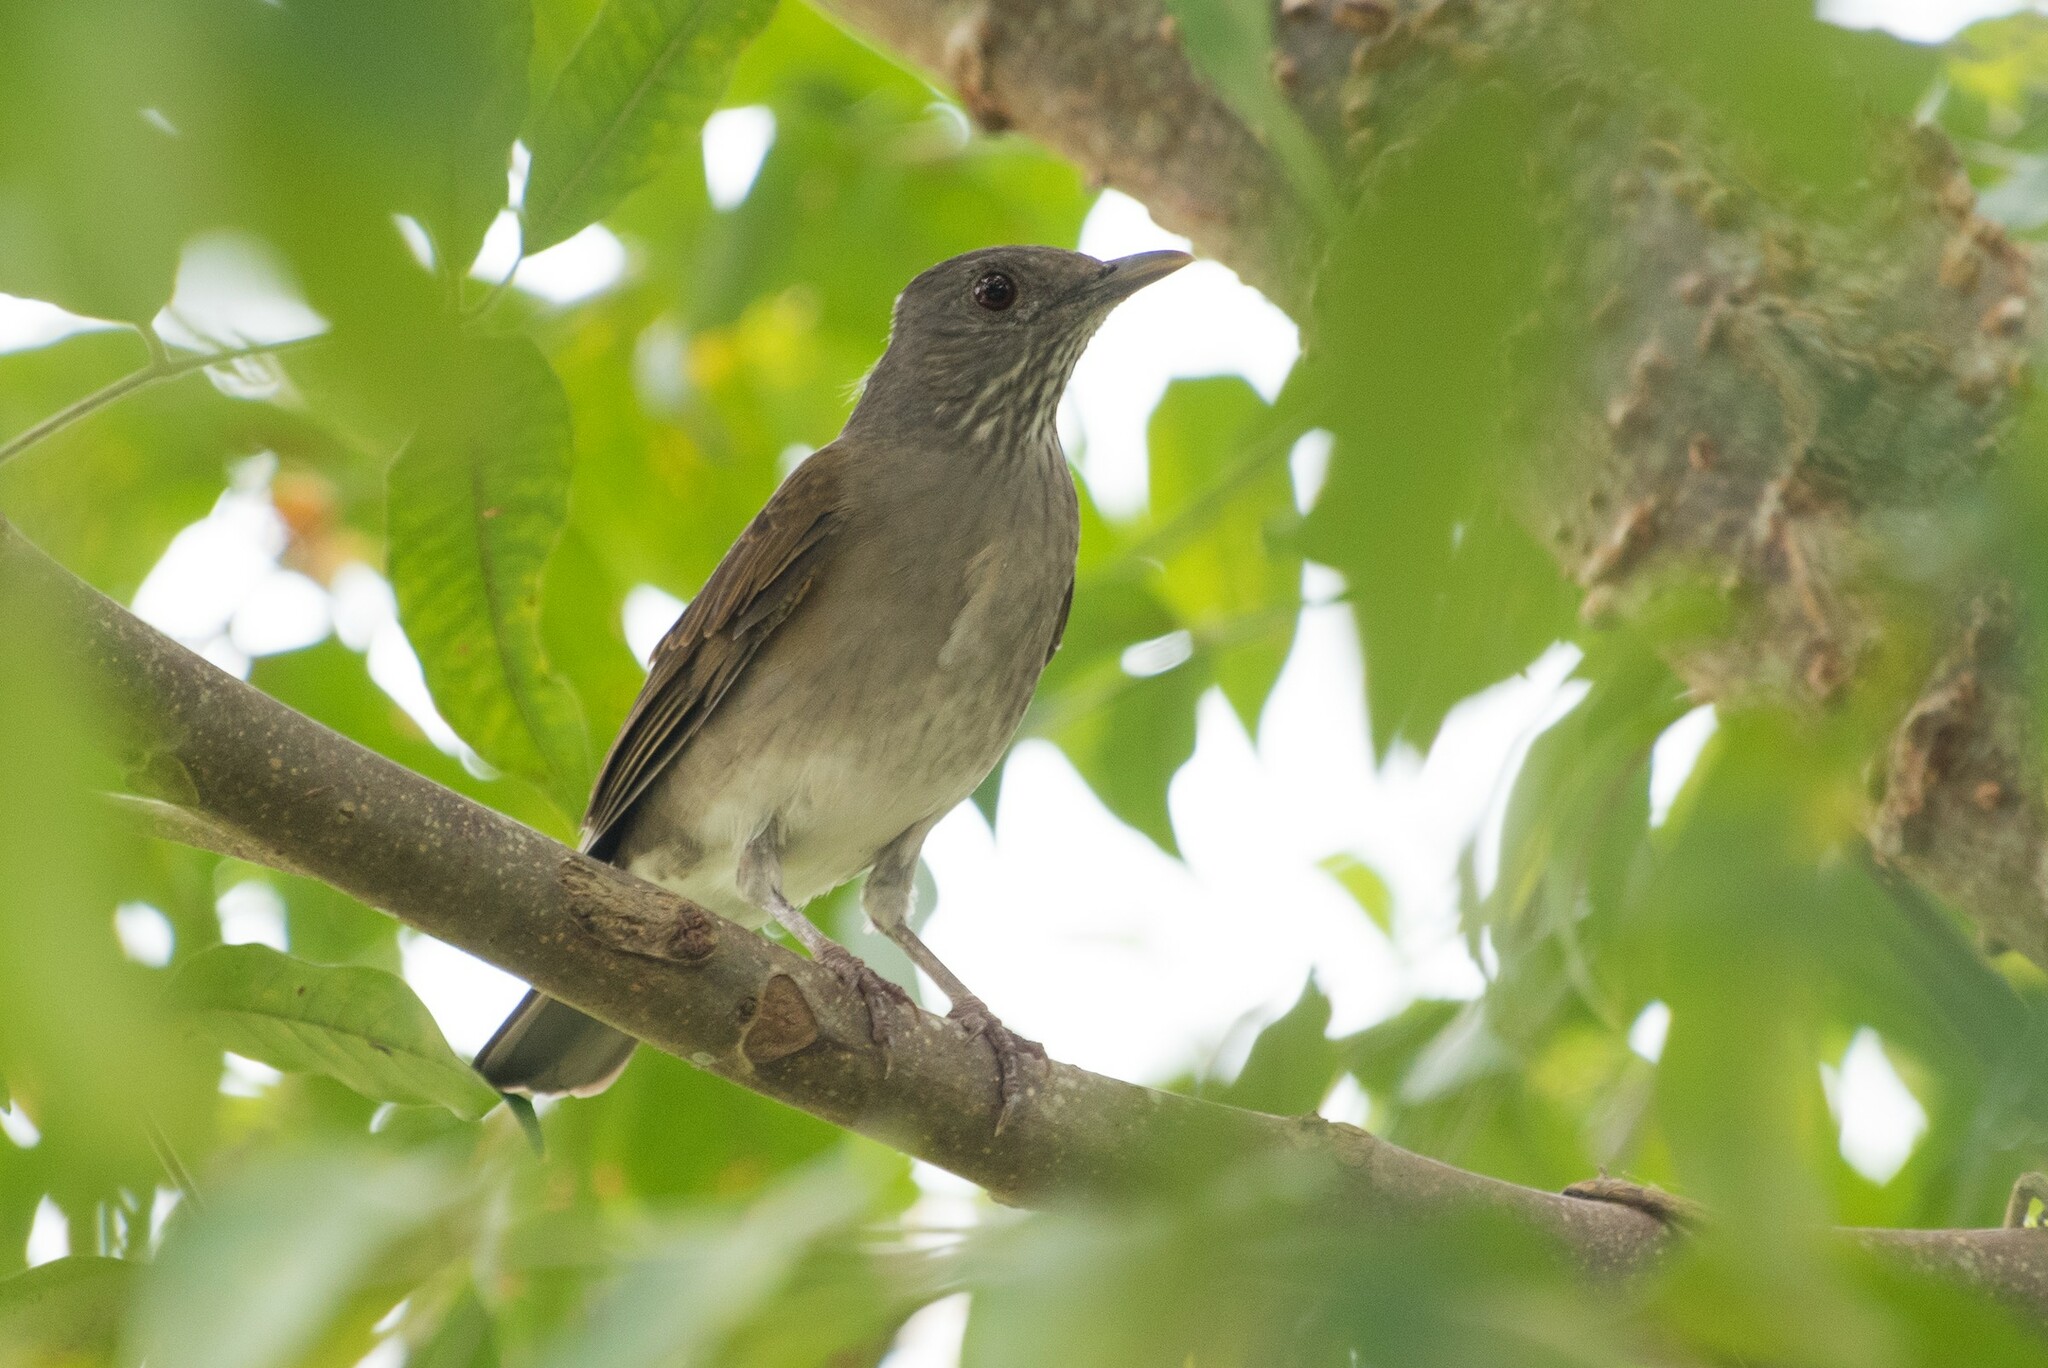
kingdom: Animalia
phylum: Chordata
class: Aves
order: Passeriformes
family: Turdidae
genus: Turdus
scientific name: Turdus leucomelas
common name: Pale-breasted thrush
